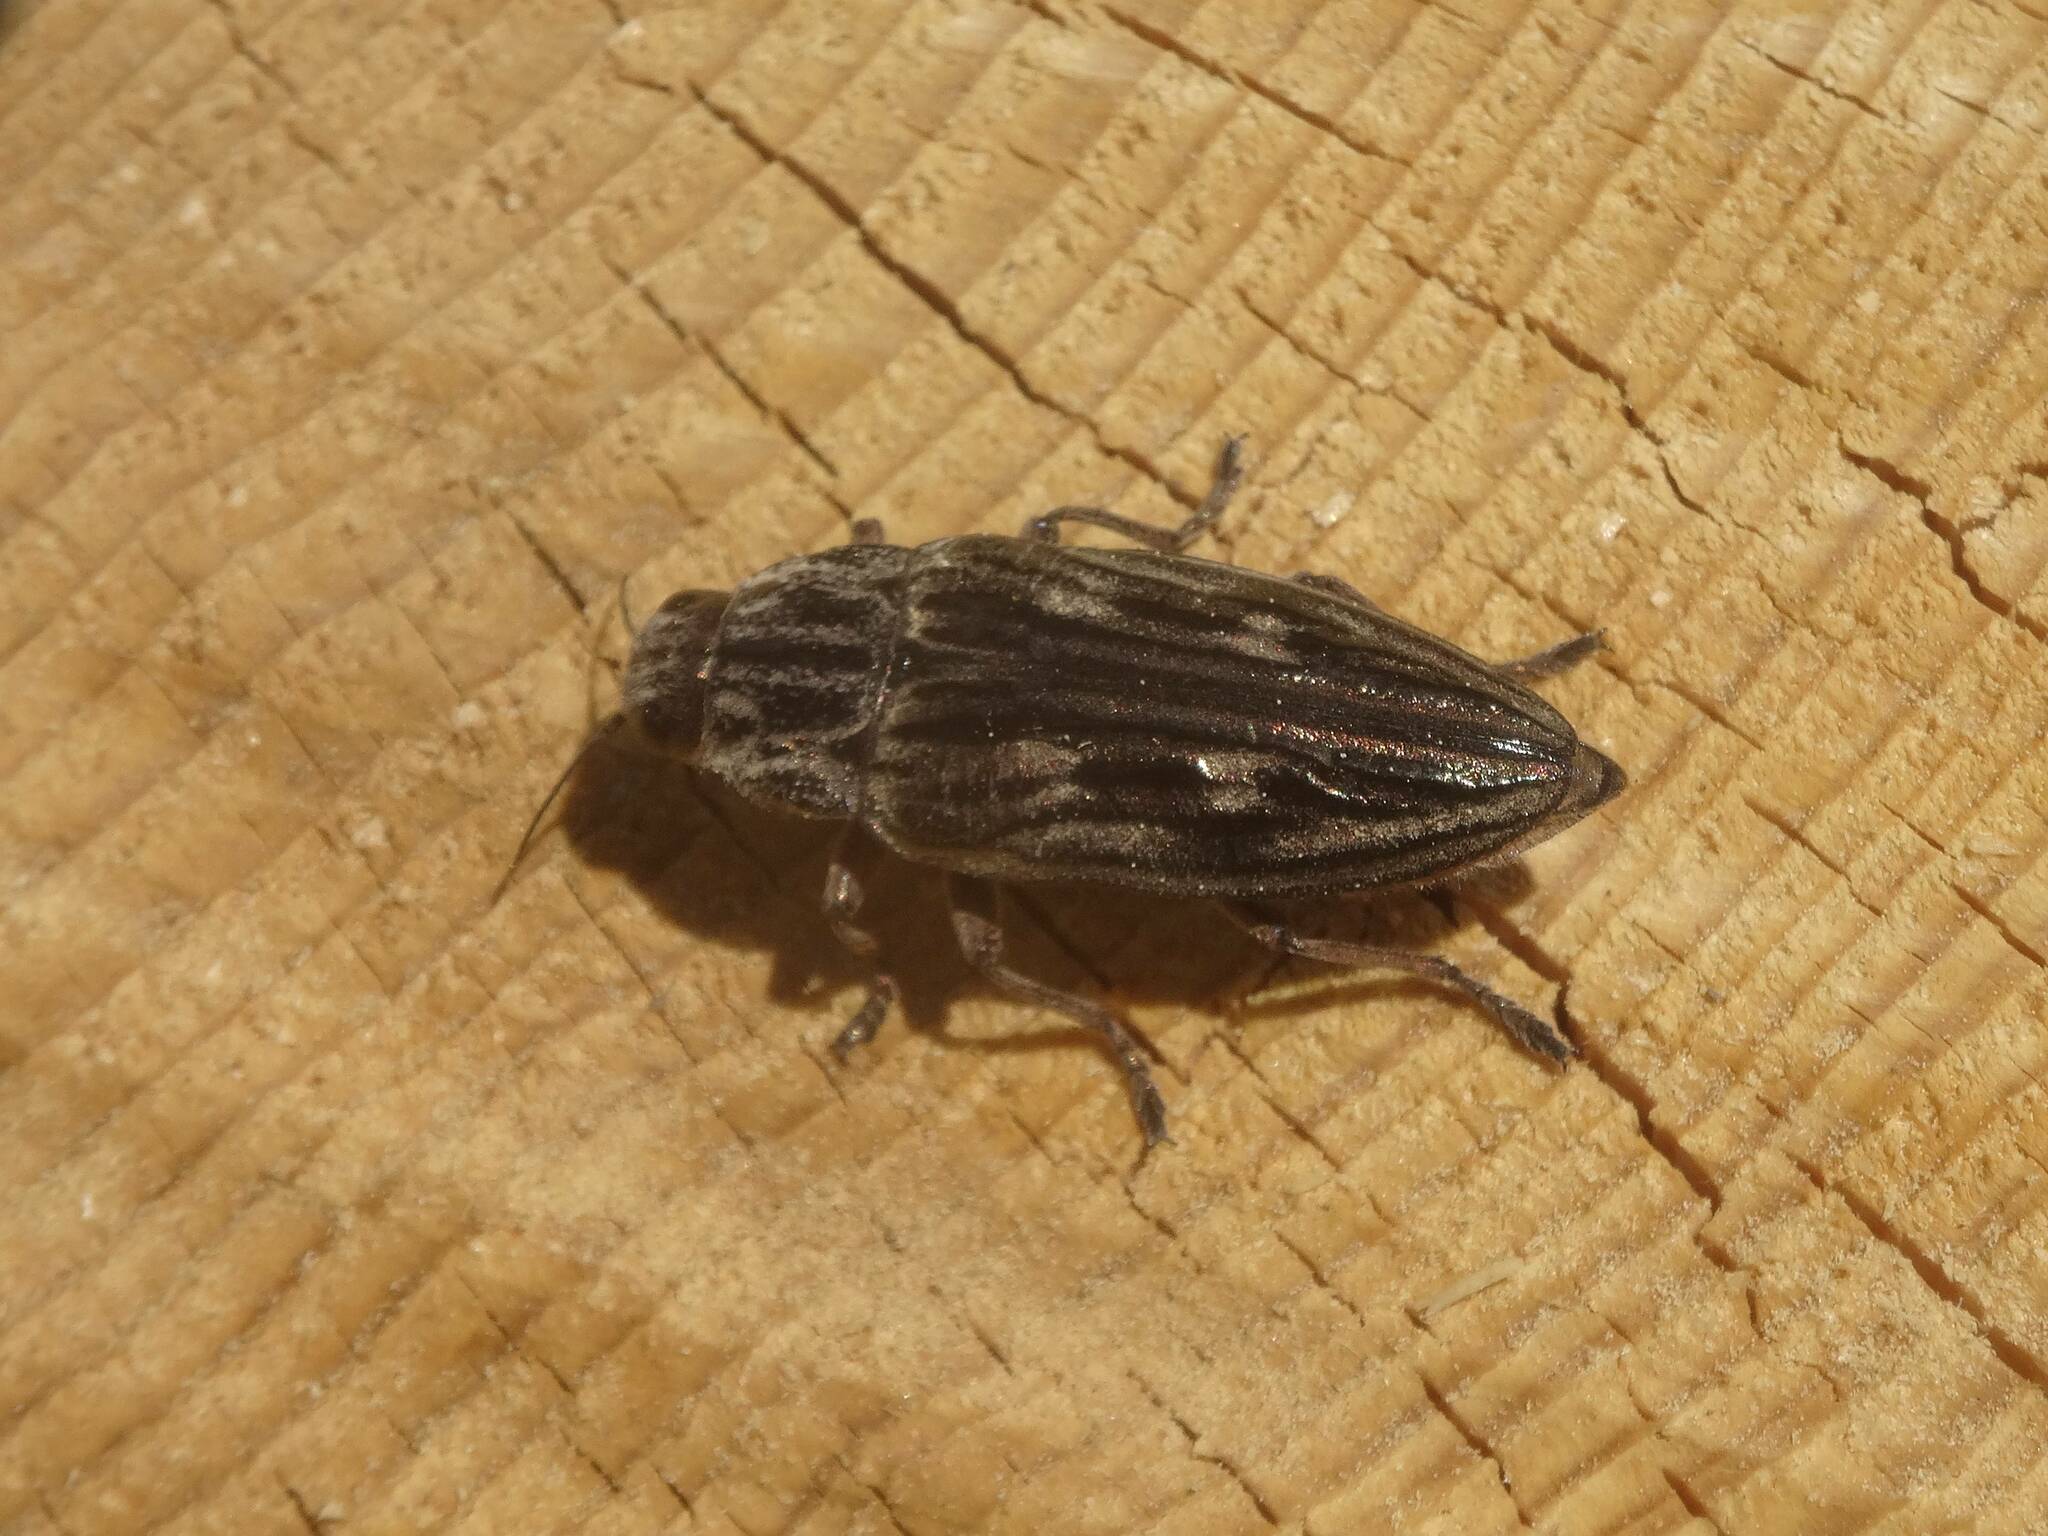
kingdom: Animalia
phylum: Arthropoda
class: Insecta
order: Coleoptera
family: Buprestidae
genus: Chalcophora
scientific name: Chalcophora mariana
